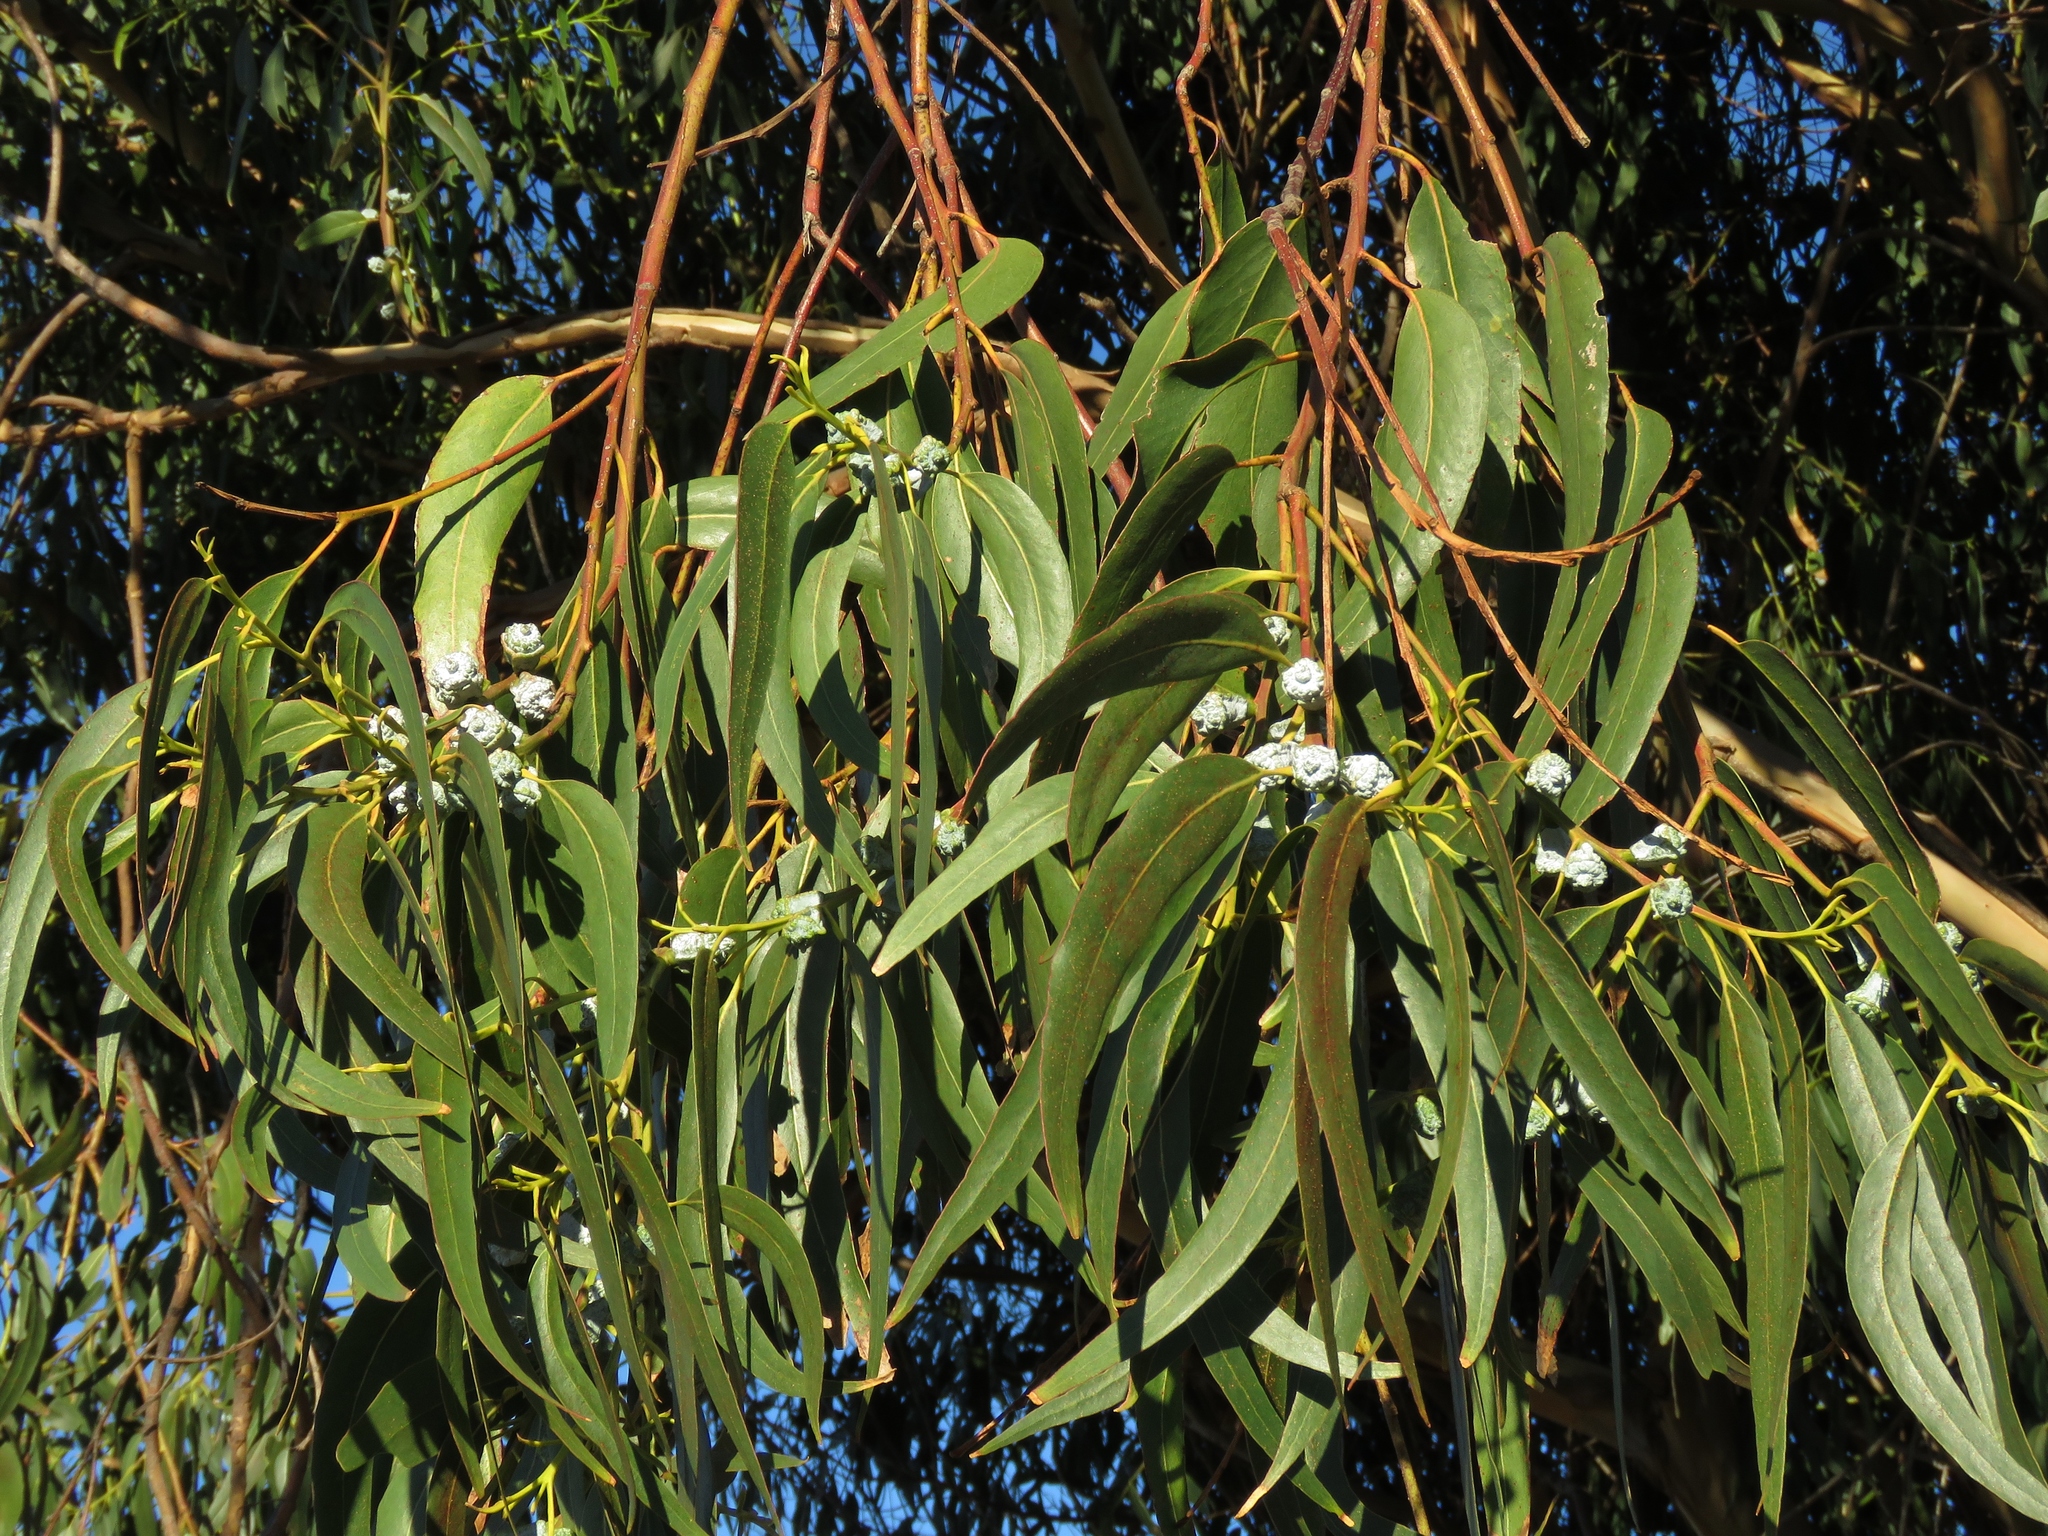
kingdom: Plantae
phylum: Tracheophyta
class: Magnoliopsida
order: Myrtales
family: Myrtaceae
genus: Eucalyptus
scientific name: Eucalyptus globulus
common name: Southern blue-gum
